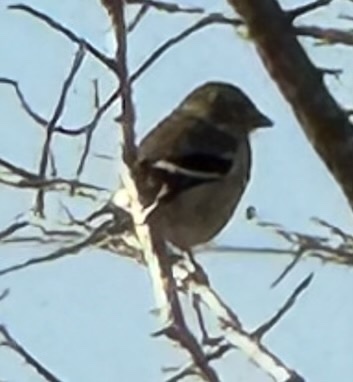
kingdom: Animalia
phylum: Chordata
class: Aves
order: Passeriformes
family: Fringillidae
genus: Spinus
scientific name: Spinus tristis
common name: American goldfinch
